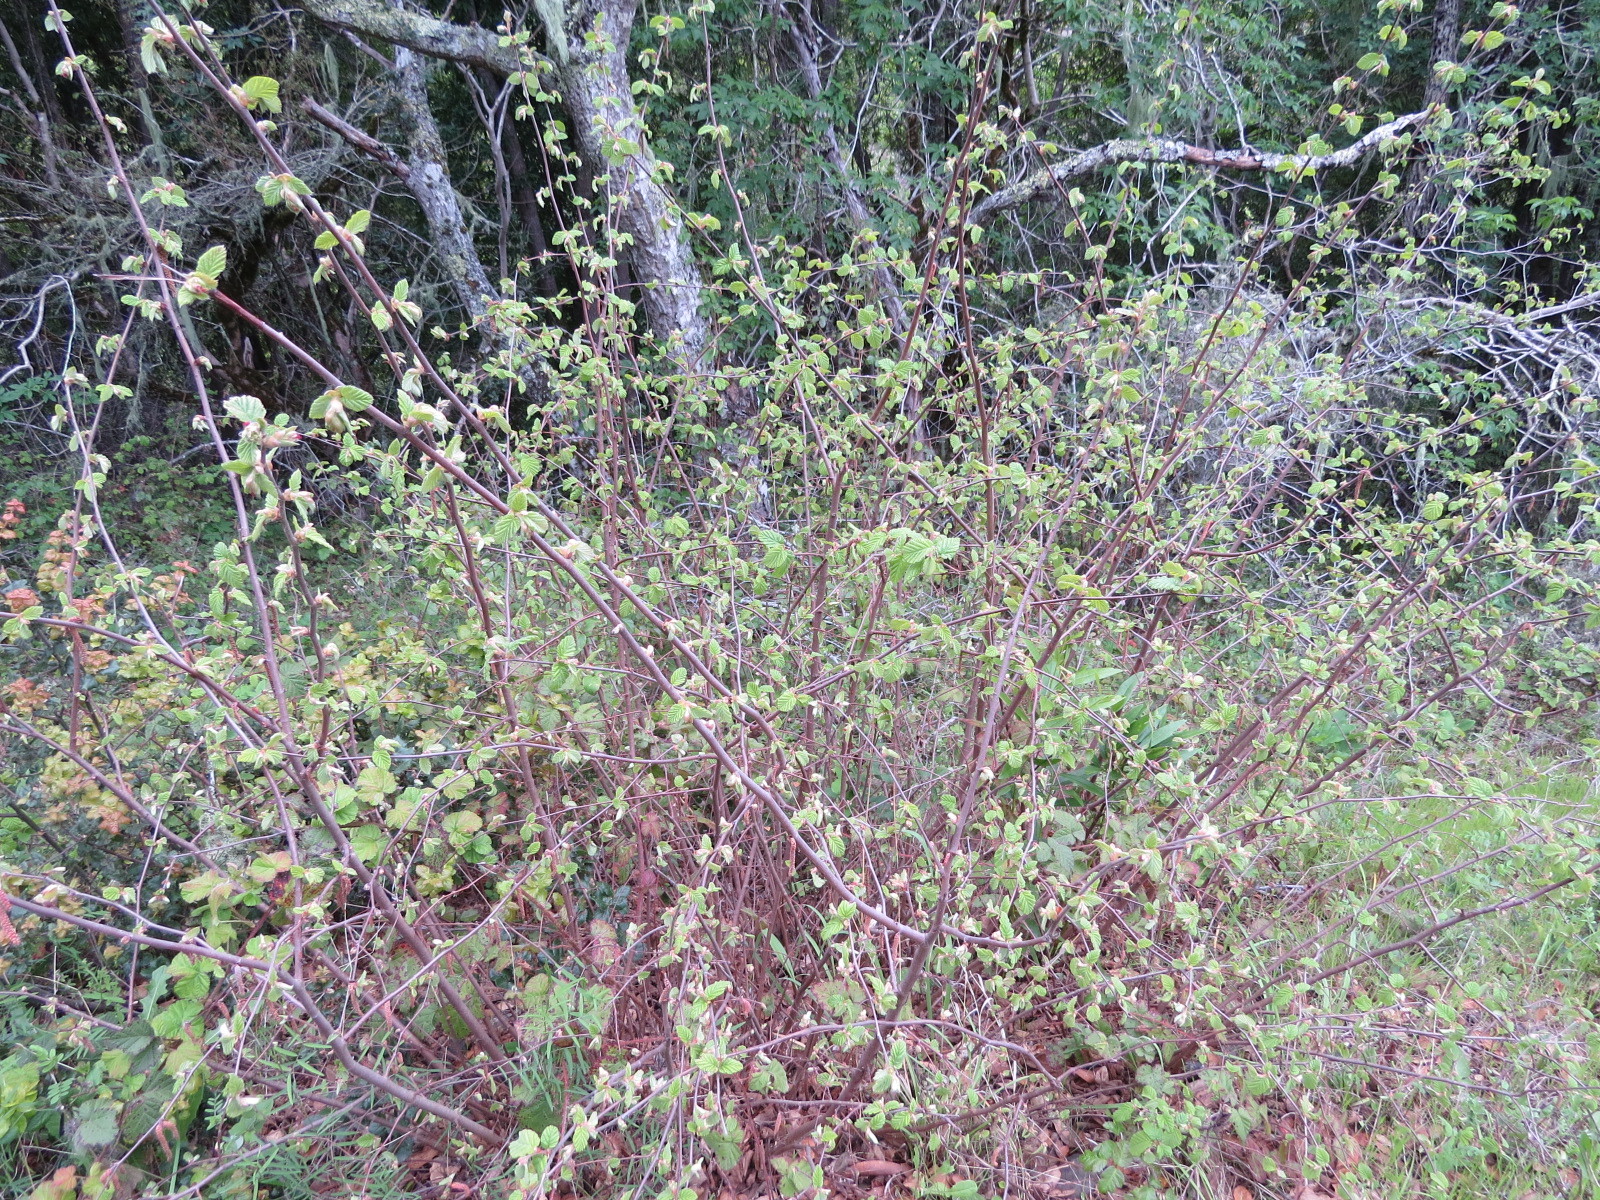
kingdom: Plantae
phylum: Tracheophyta
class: Magnoliopsida
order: Fagales
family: Betulaceae
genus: Corylus
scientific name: Corylus cornuta
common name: Beaked hazel
